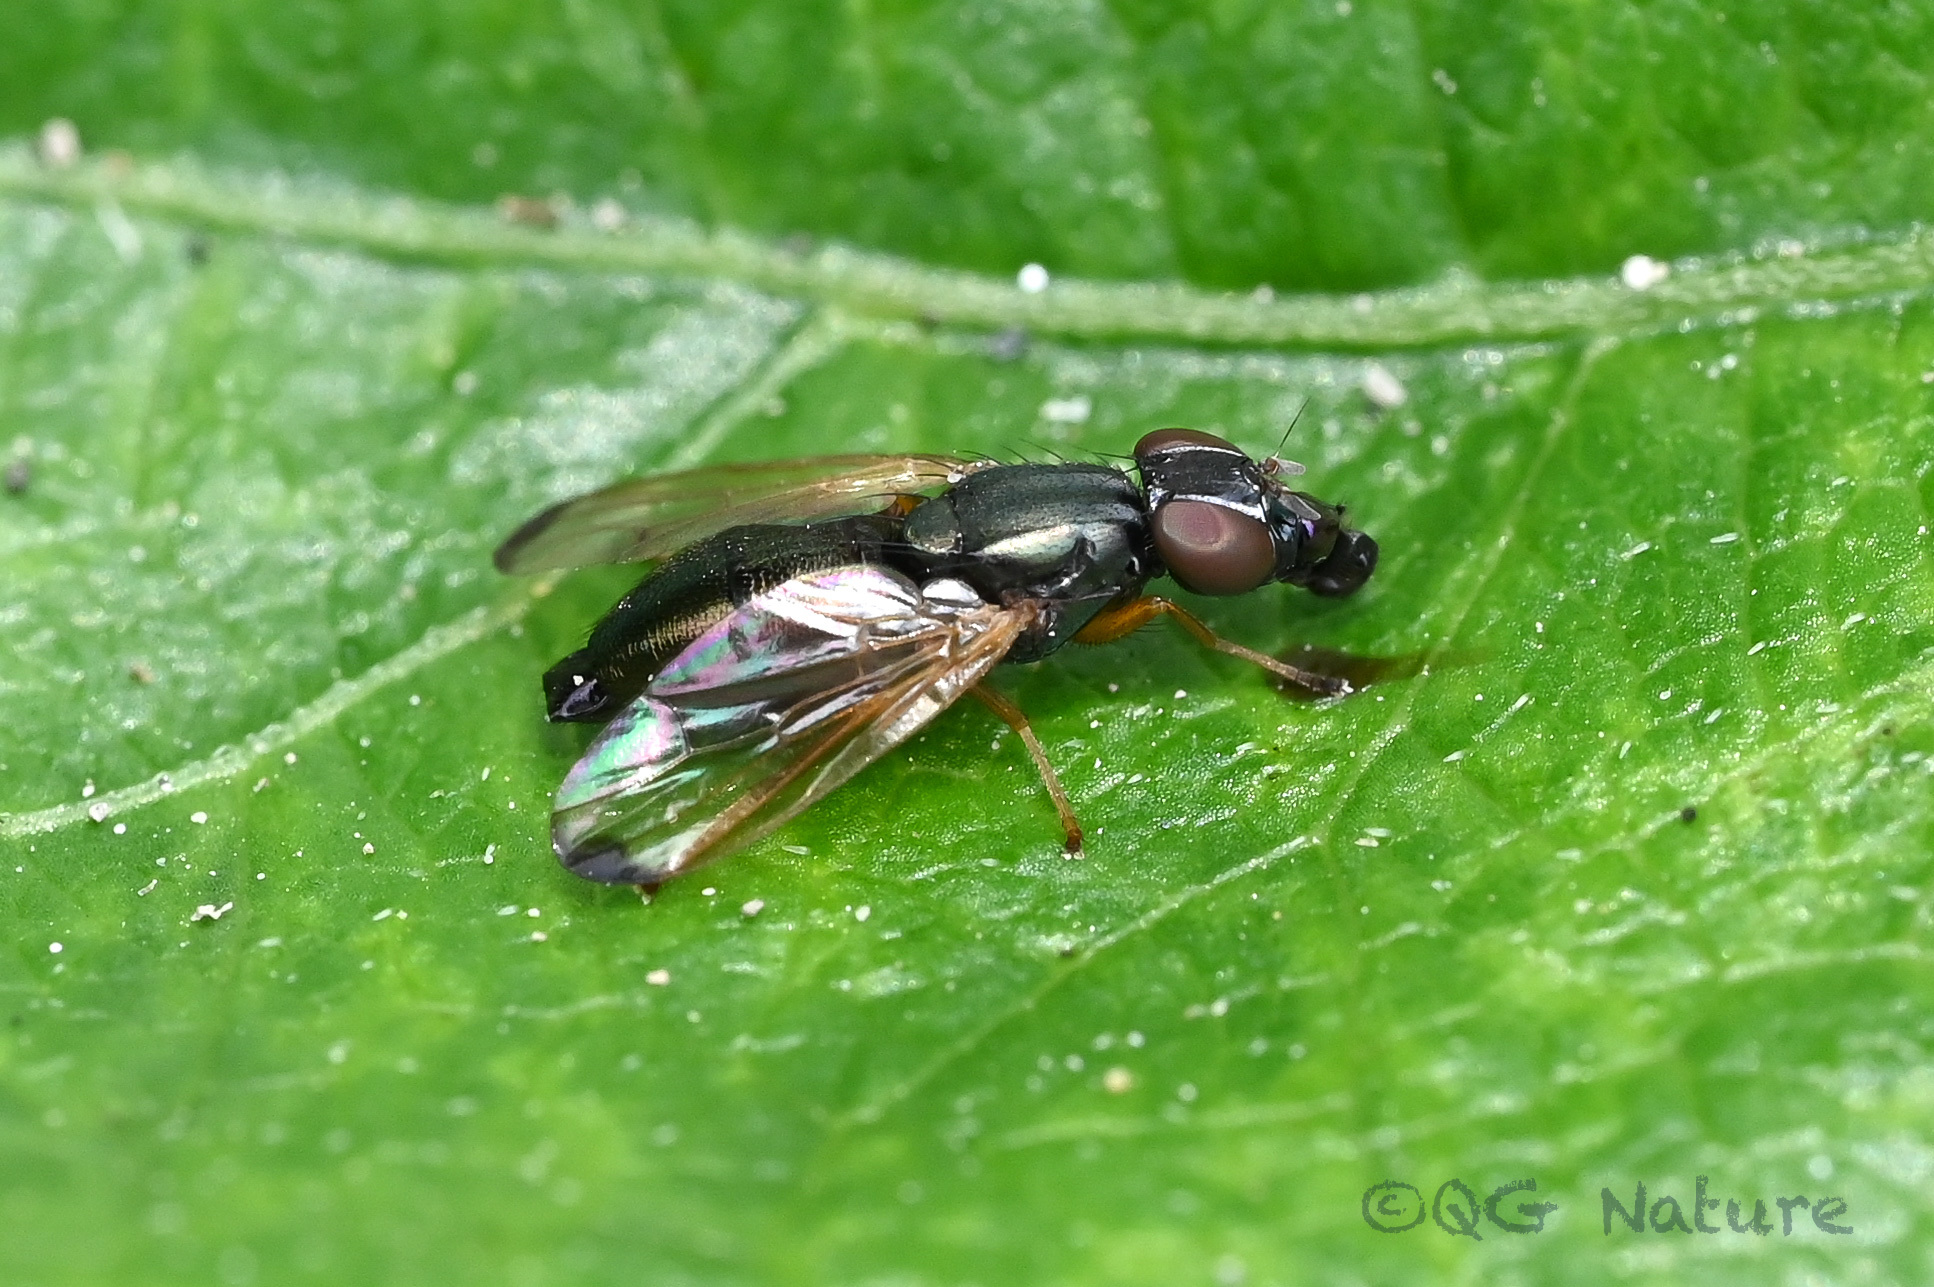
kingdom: Animalia
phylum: Arthropoda
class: Insecta
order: Diptera
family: Platystomatidae
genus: Rivellia
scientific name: Rivellia apicalis
